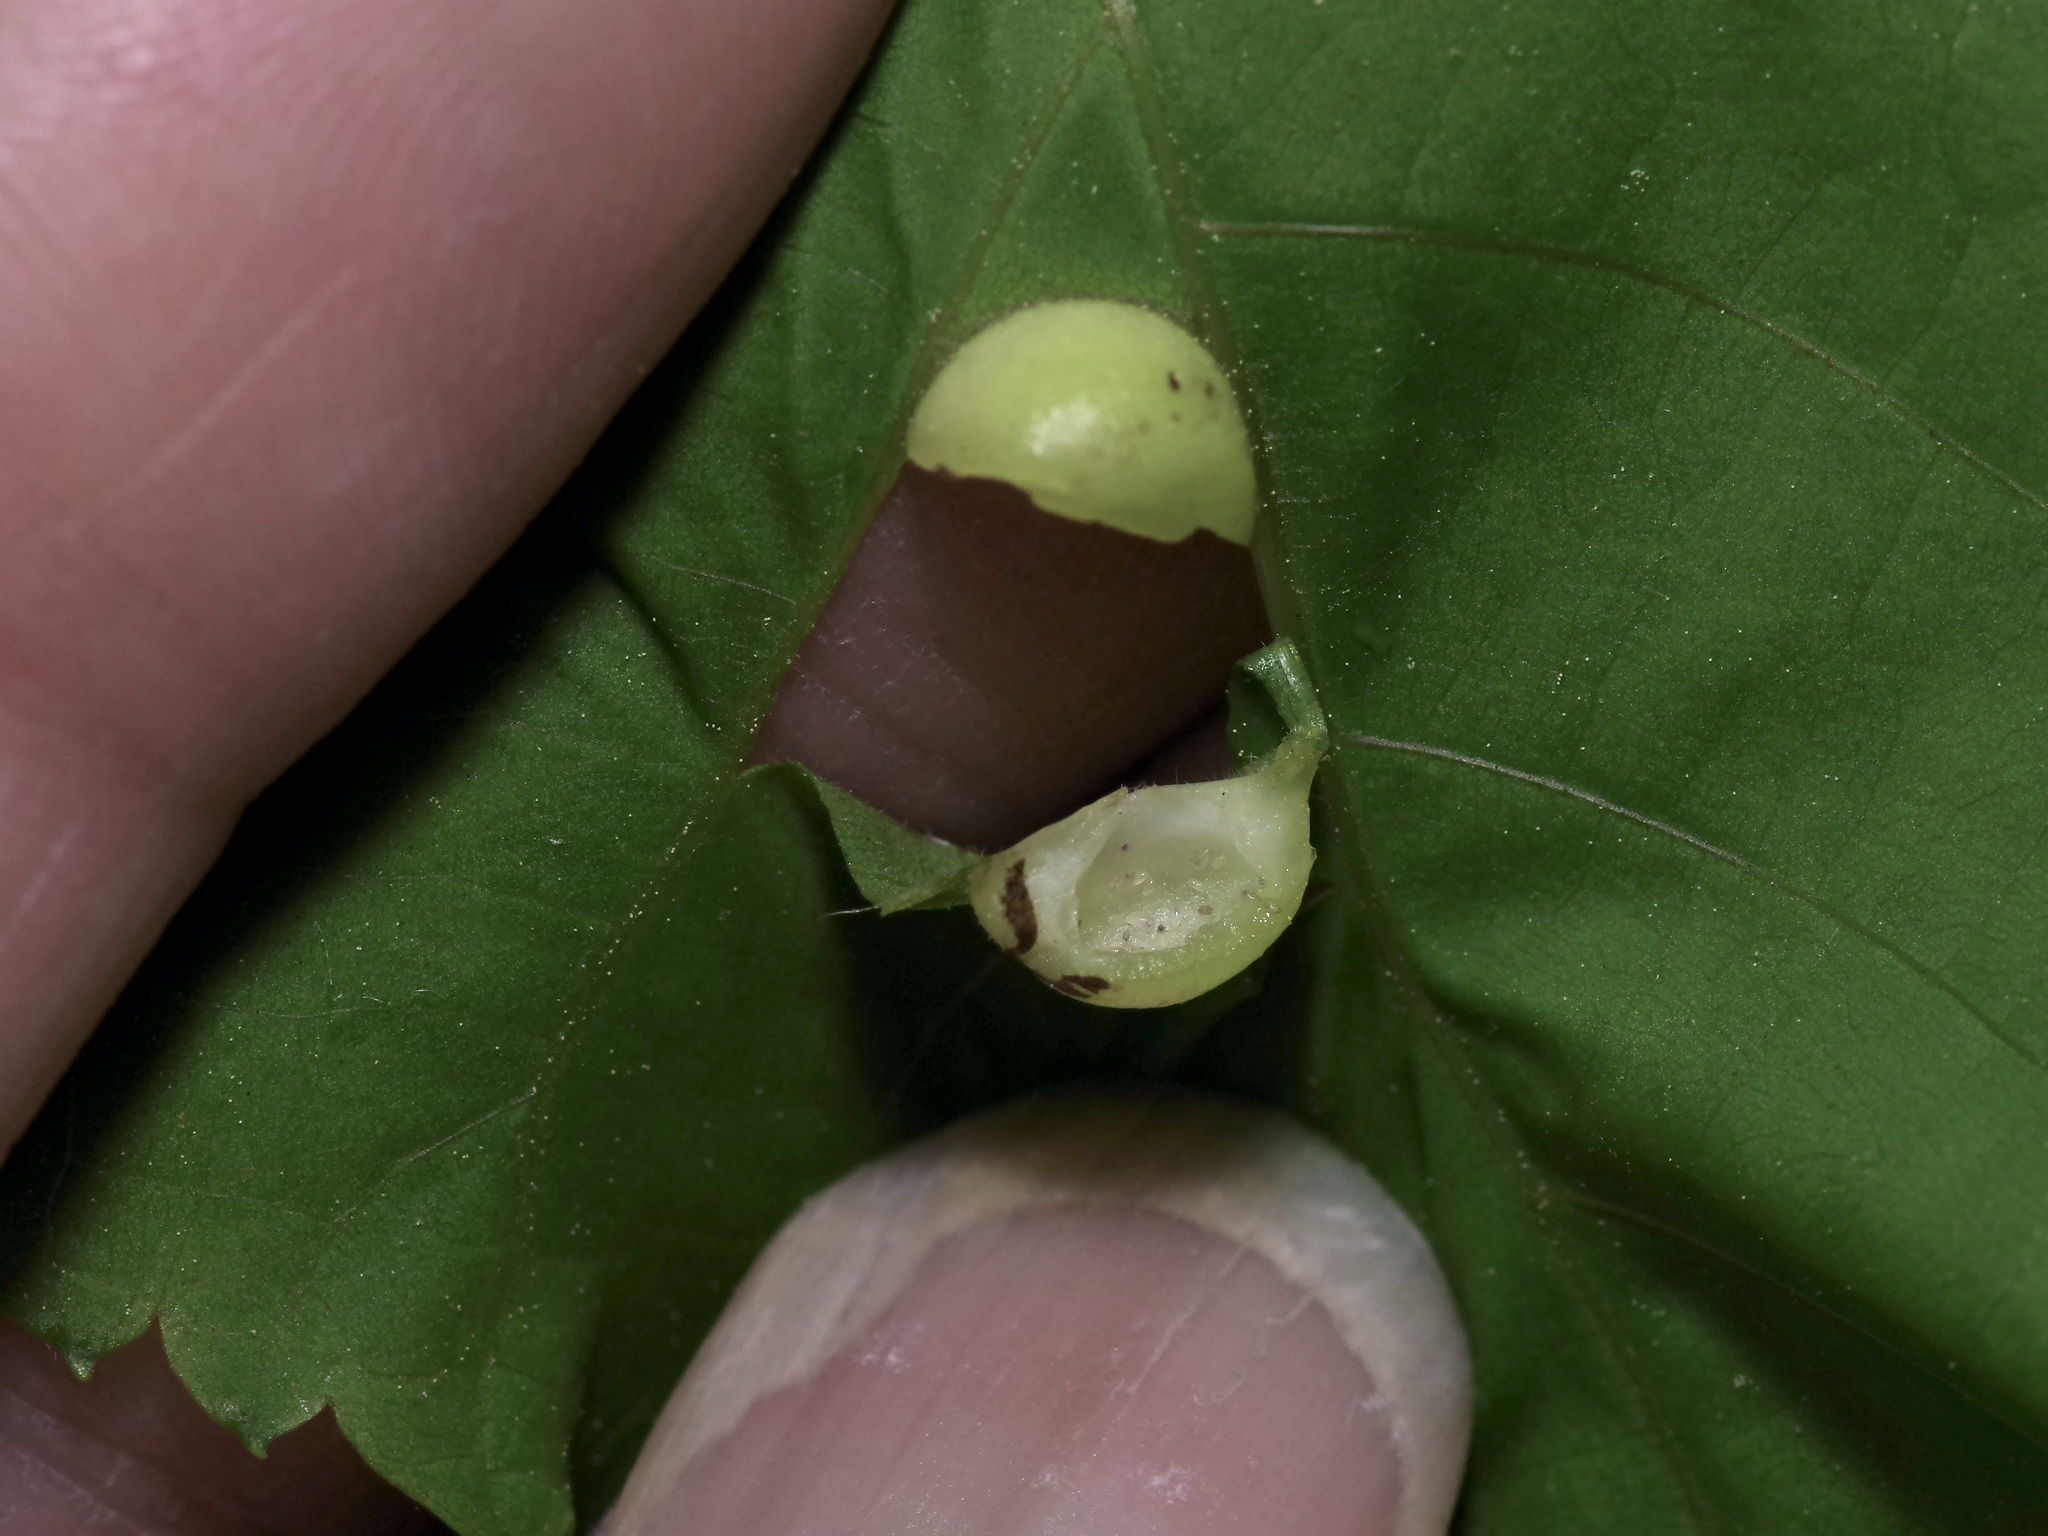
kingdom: Animalia
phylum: Arthropoda
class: Insecta
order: Hemiptera
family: Phylloxeridae
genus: Phylloxera
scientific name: Phylloxera caryae-globuli
